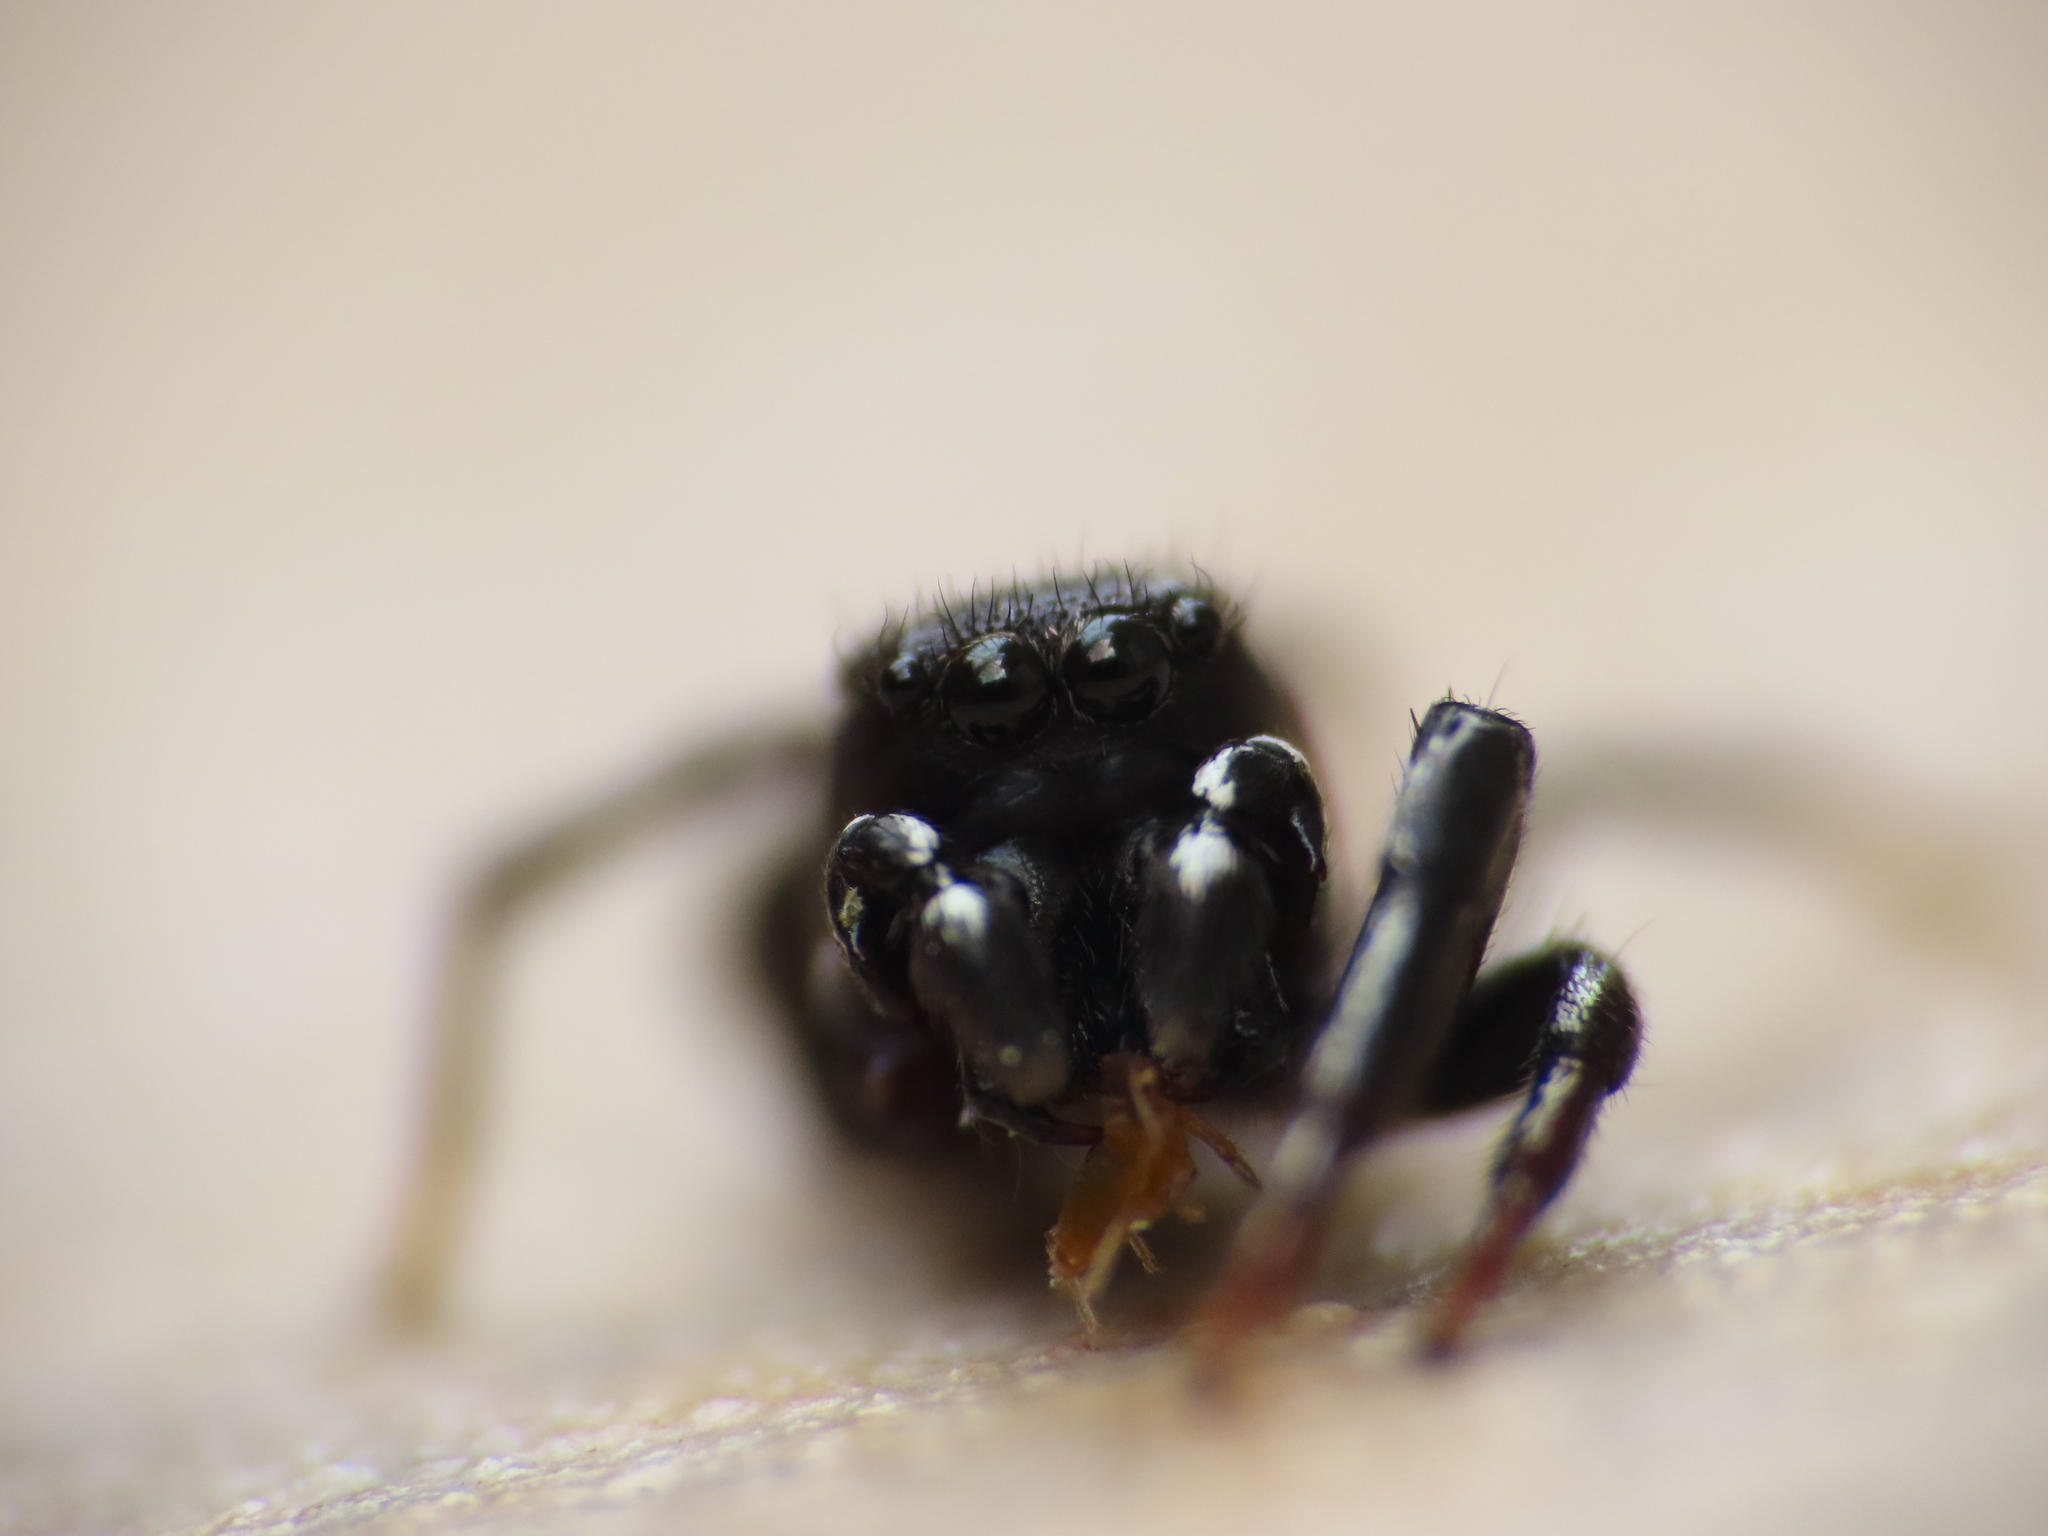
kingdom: Animalia
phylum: Arthropoda
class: Arachnida
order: Araneae
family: Salticidae
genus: Heliophanus
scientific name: Heliophanus lineiventris
